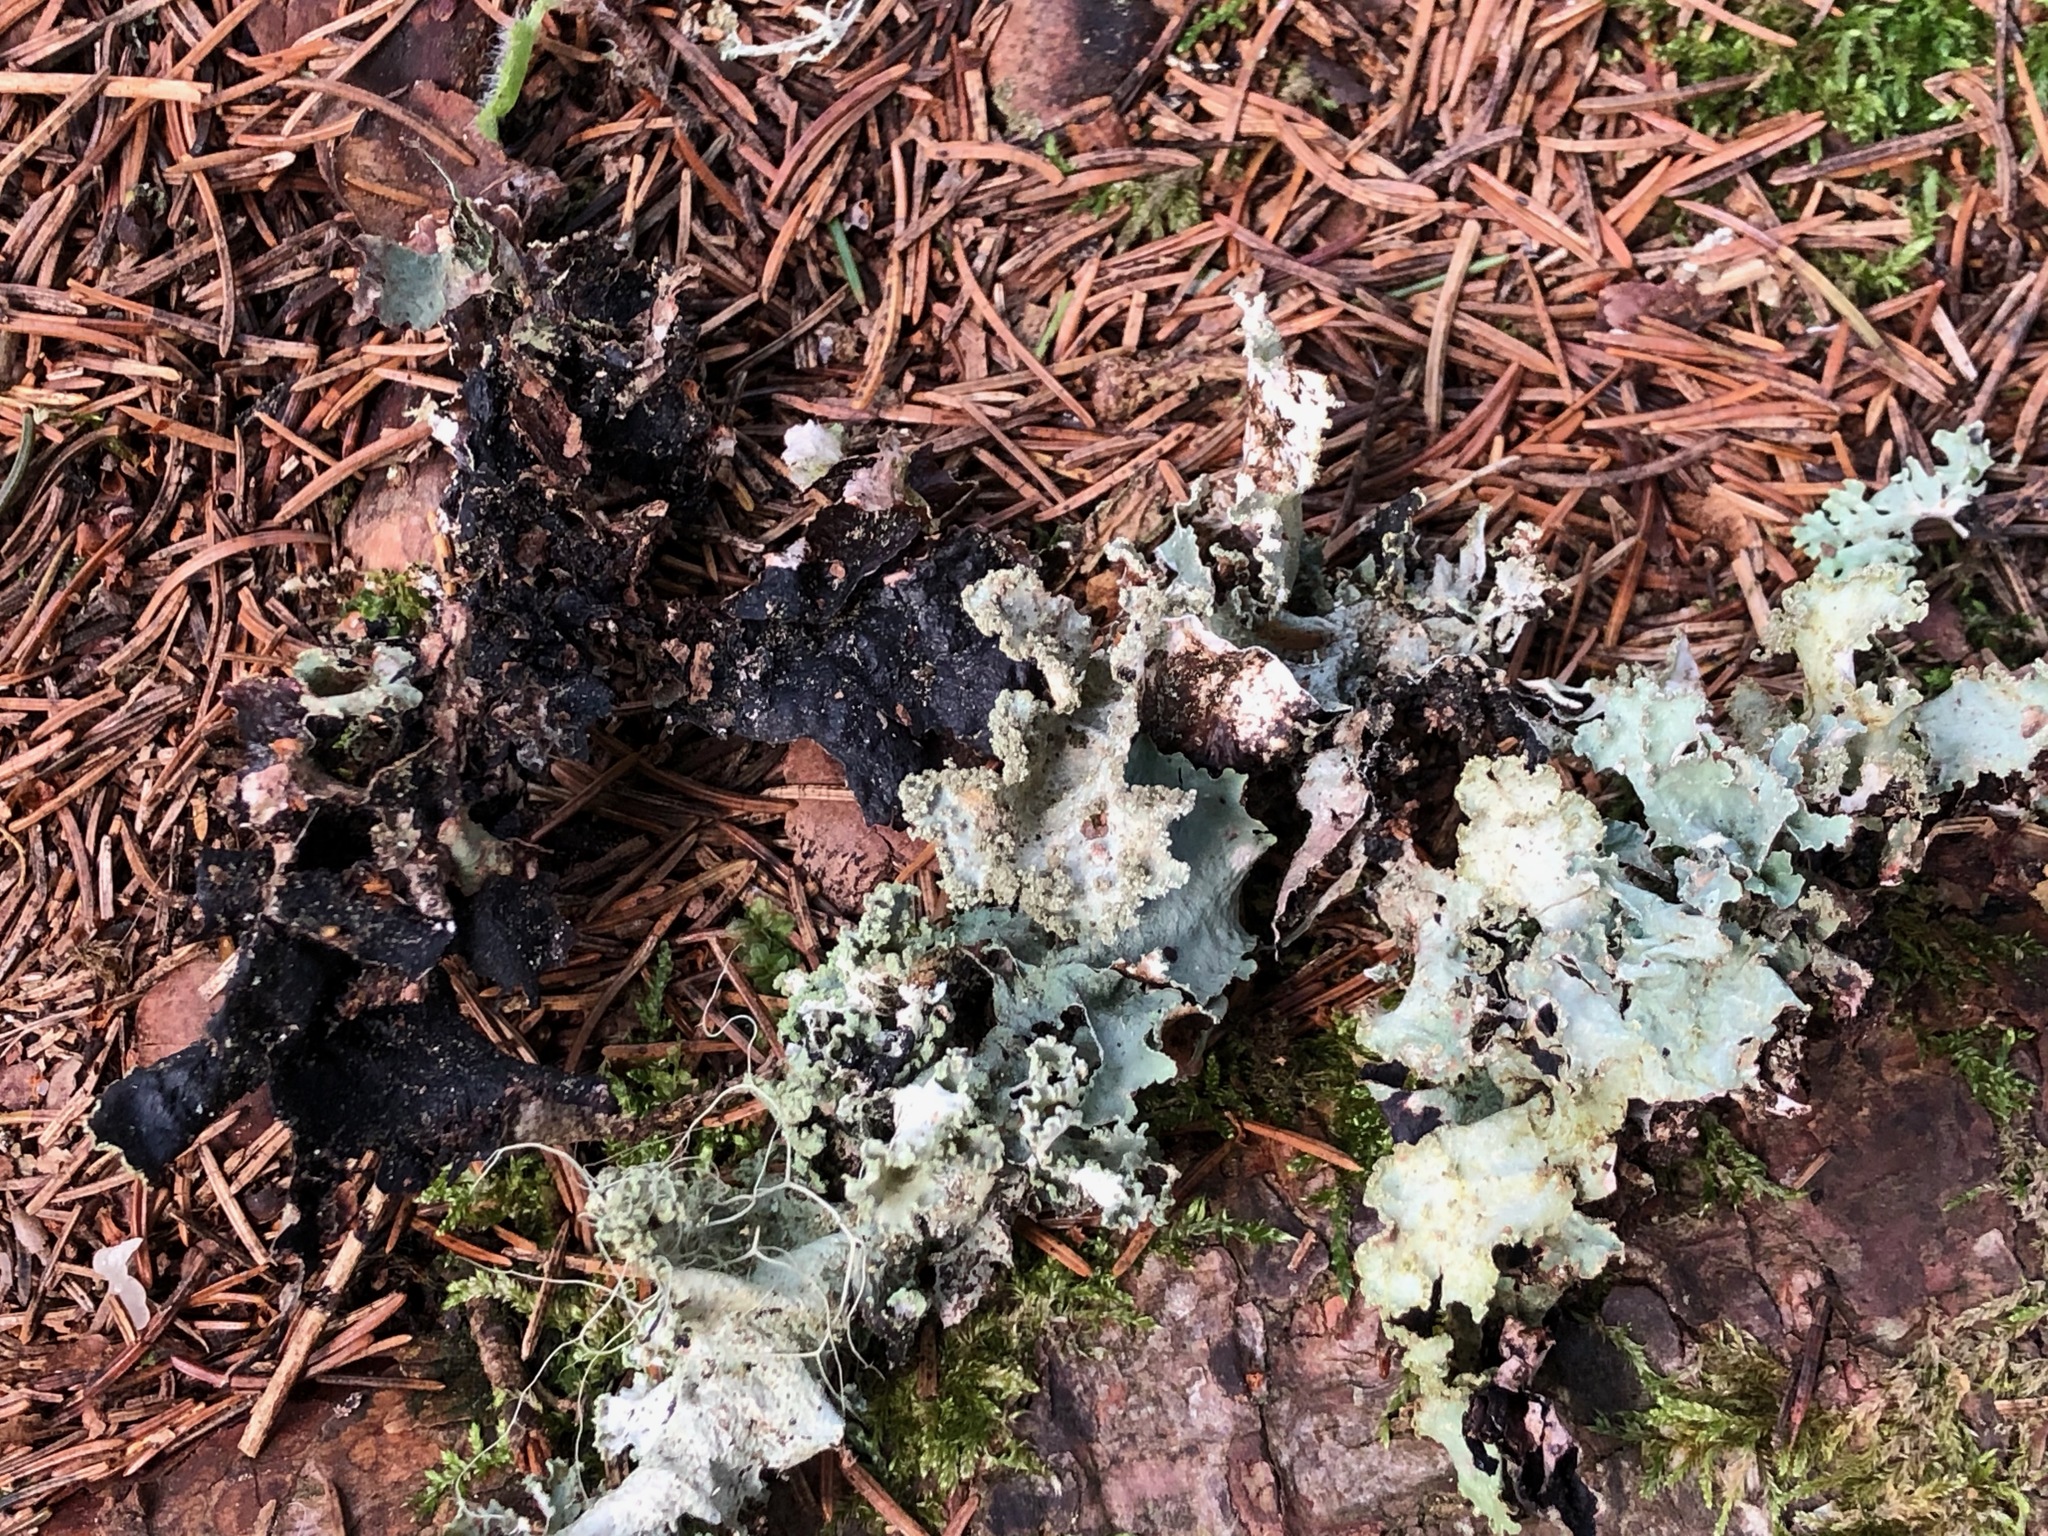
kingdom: Fungi
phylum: Ascomycota
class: Lecanoromycetes
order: Lecanorales
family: Parmeliaceae
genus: Platismatia
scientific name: Platismatia glauca
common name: Varied rag lichen
